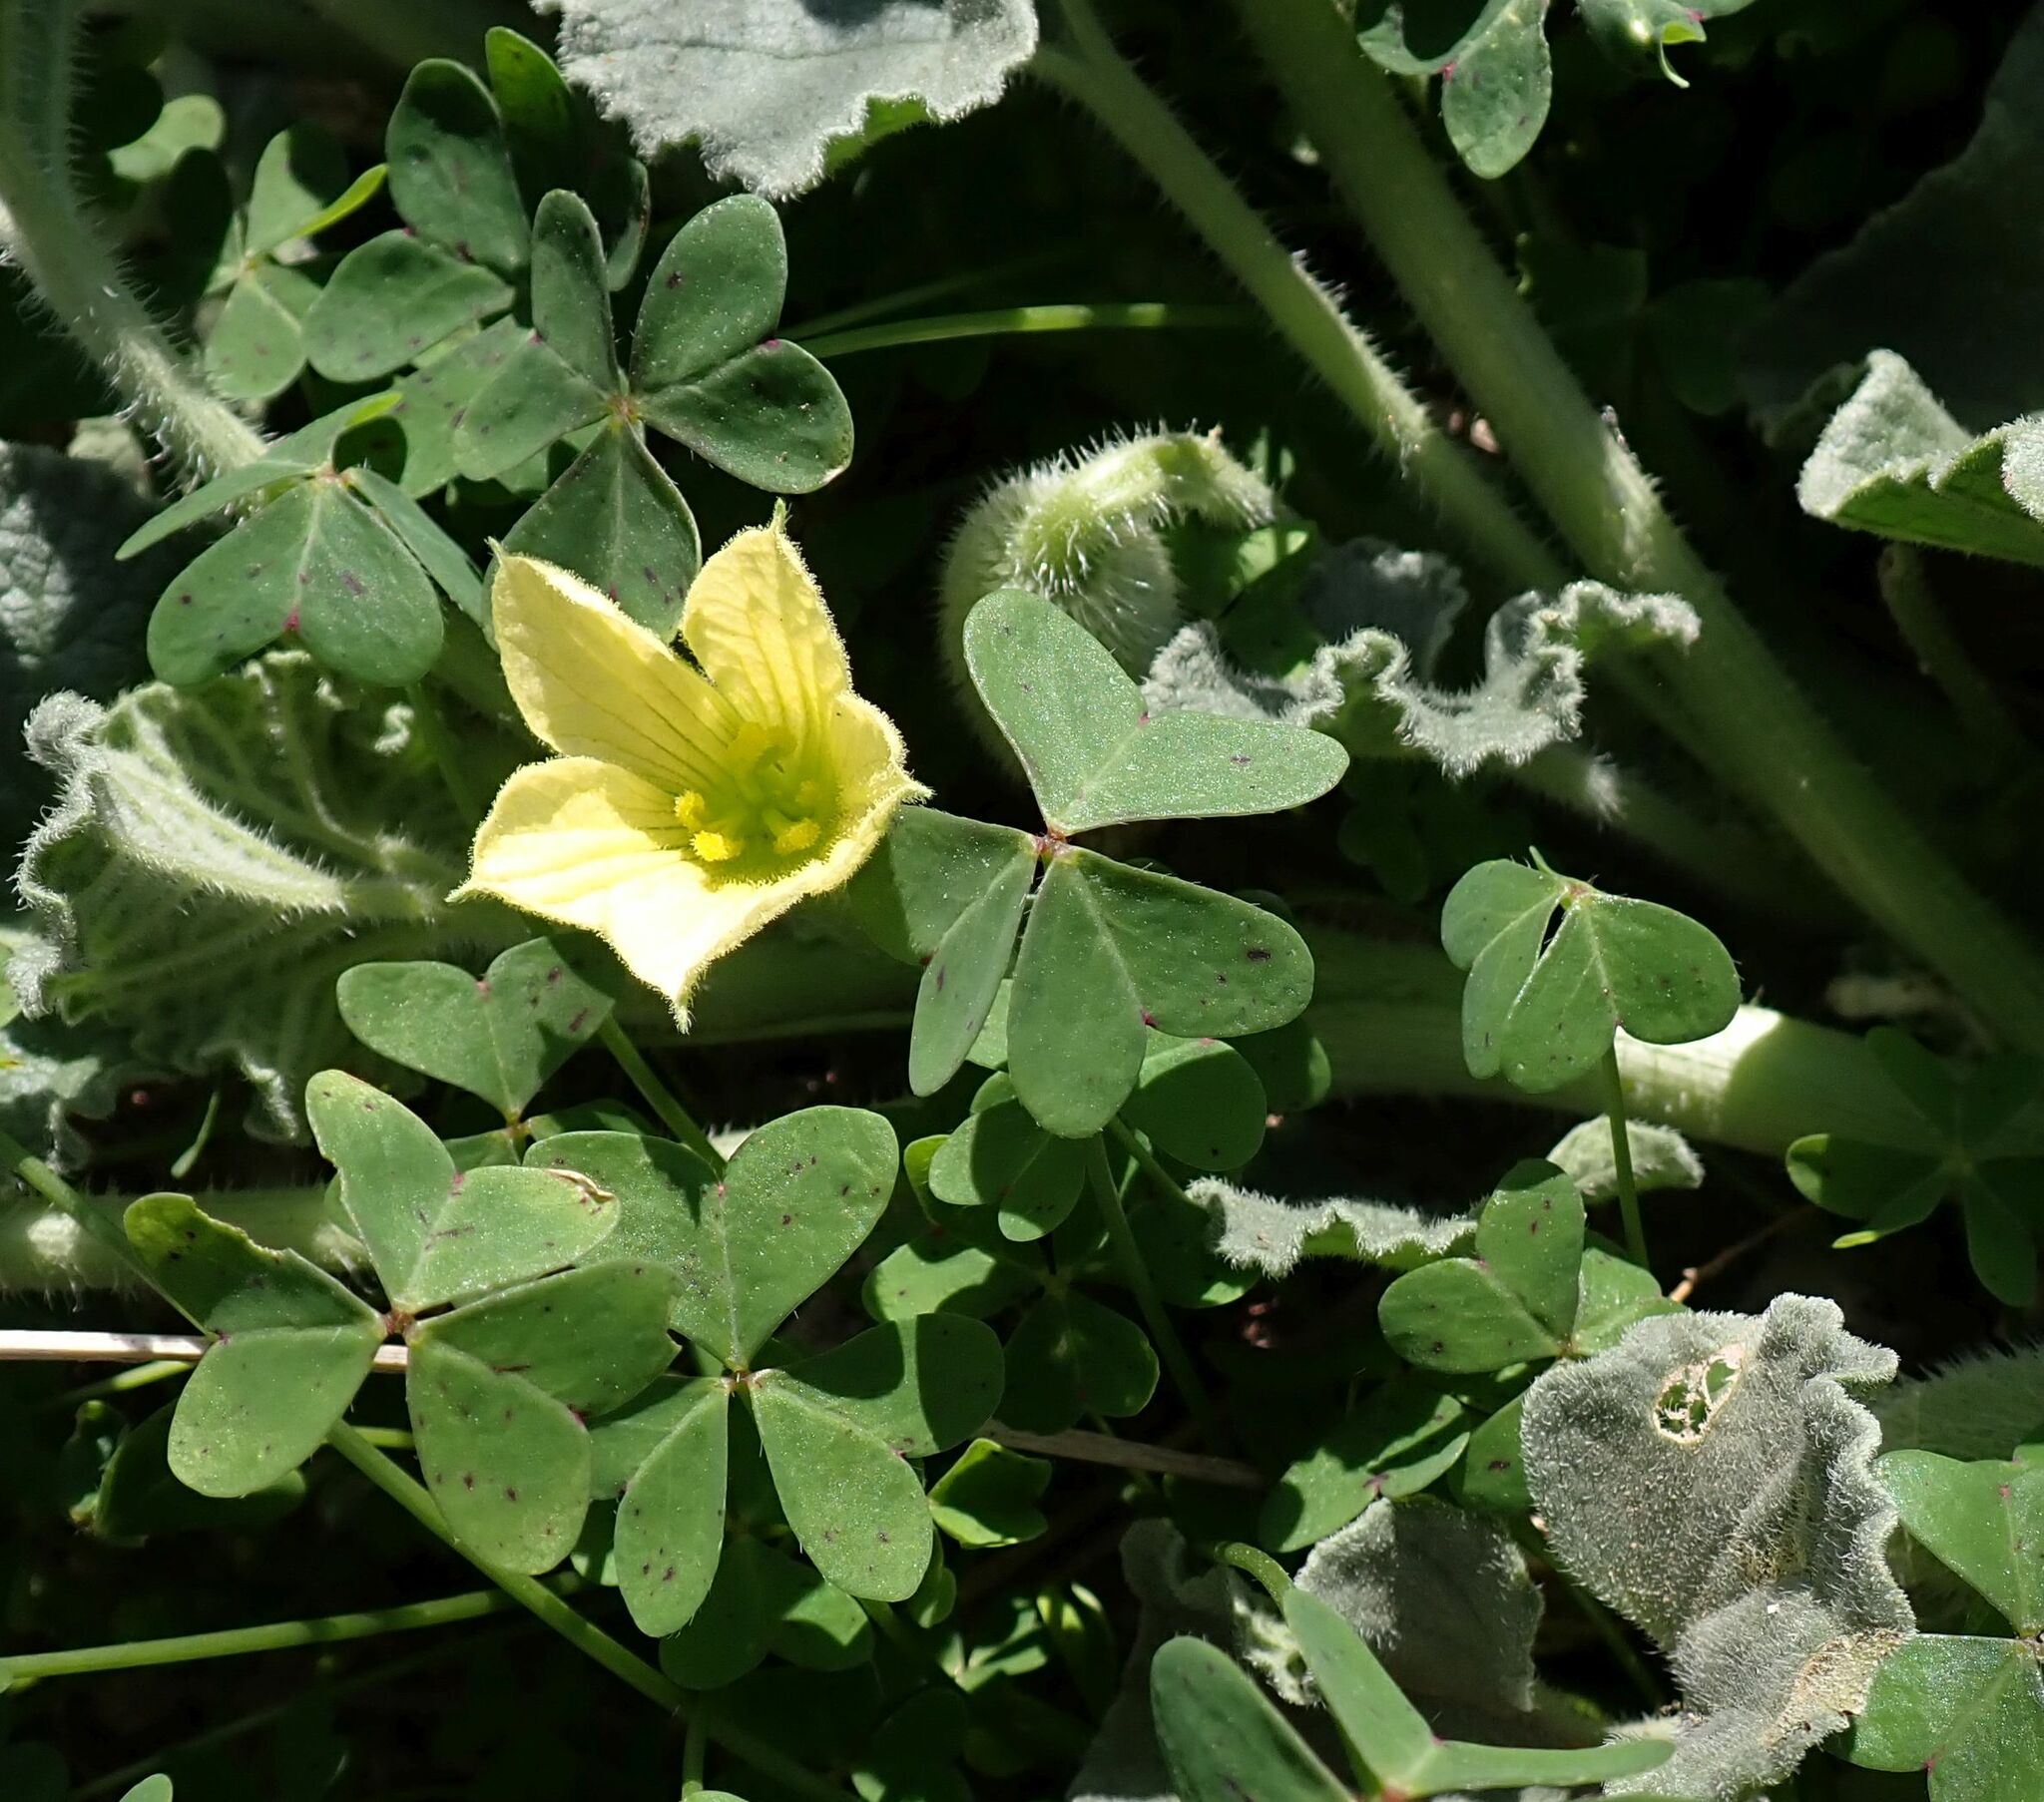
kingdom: Plantae
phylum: Tracheophyta
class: Magnoliopsida
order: Cucurbitales
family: Cucurbitaceae
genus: Ecballium
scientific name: Ecballium elaterium
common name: Squirting cucumber
